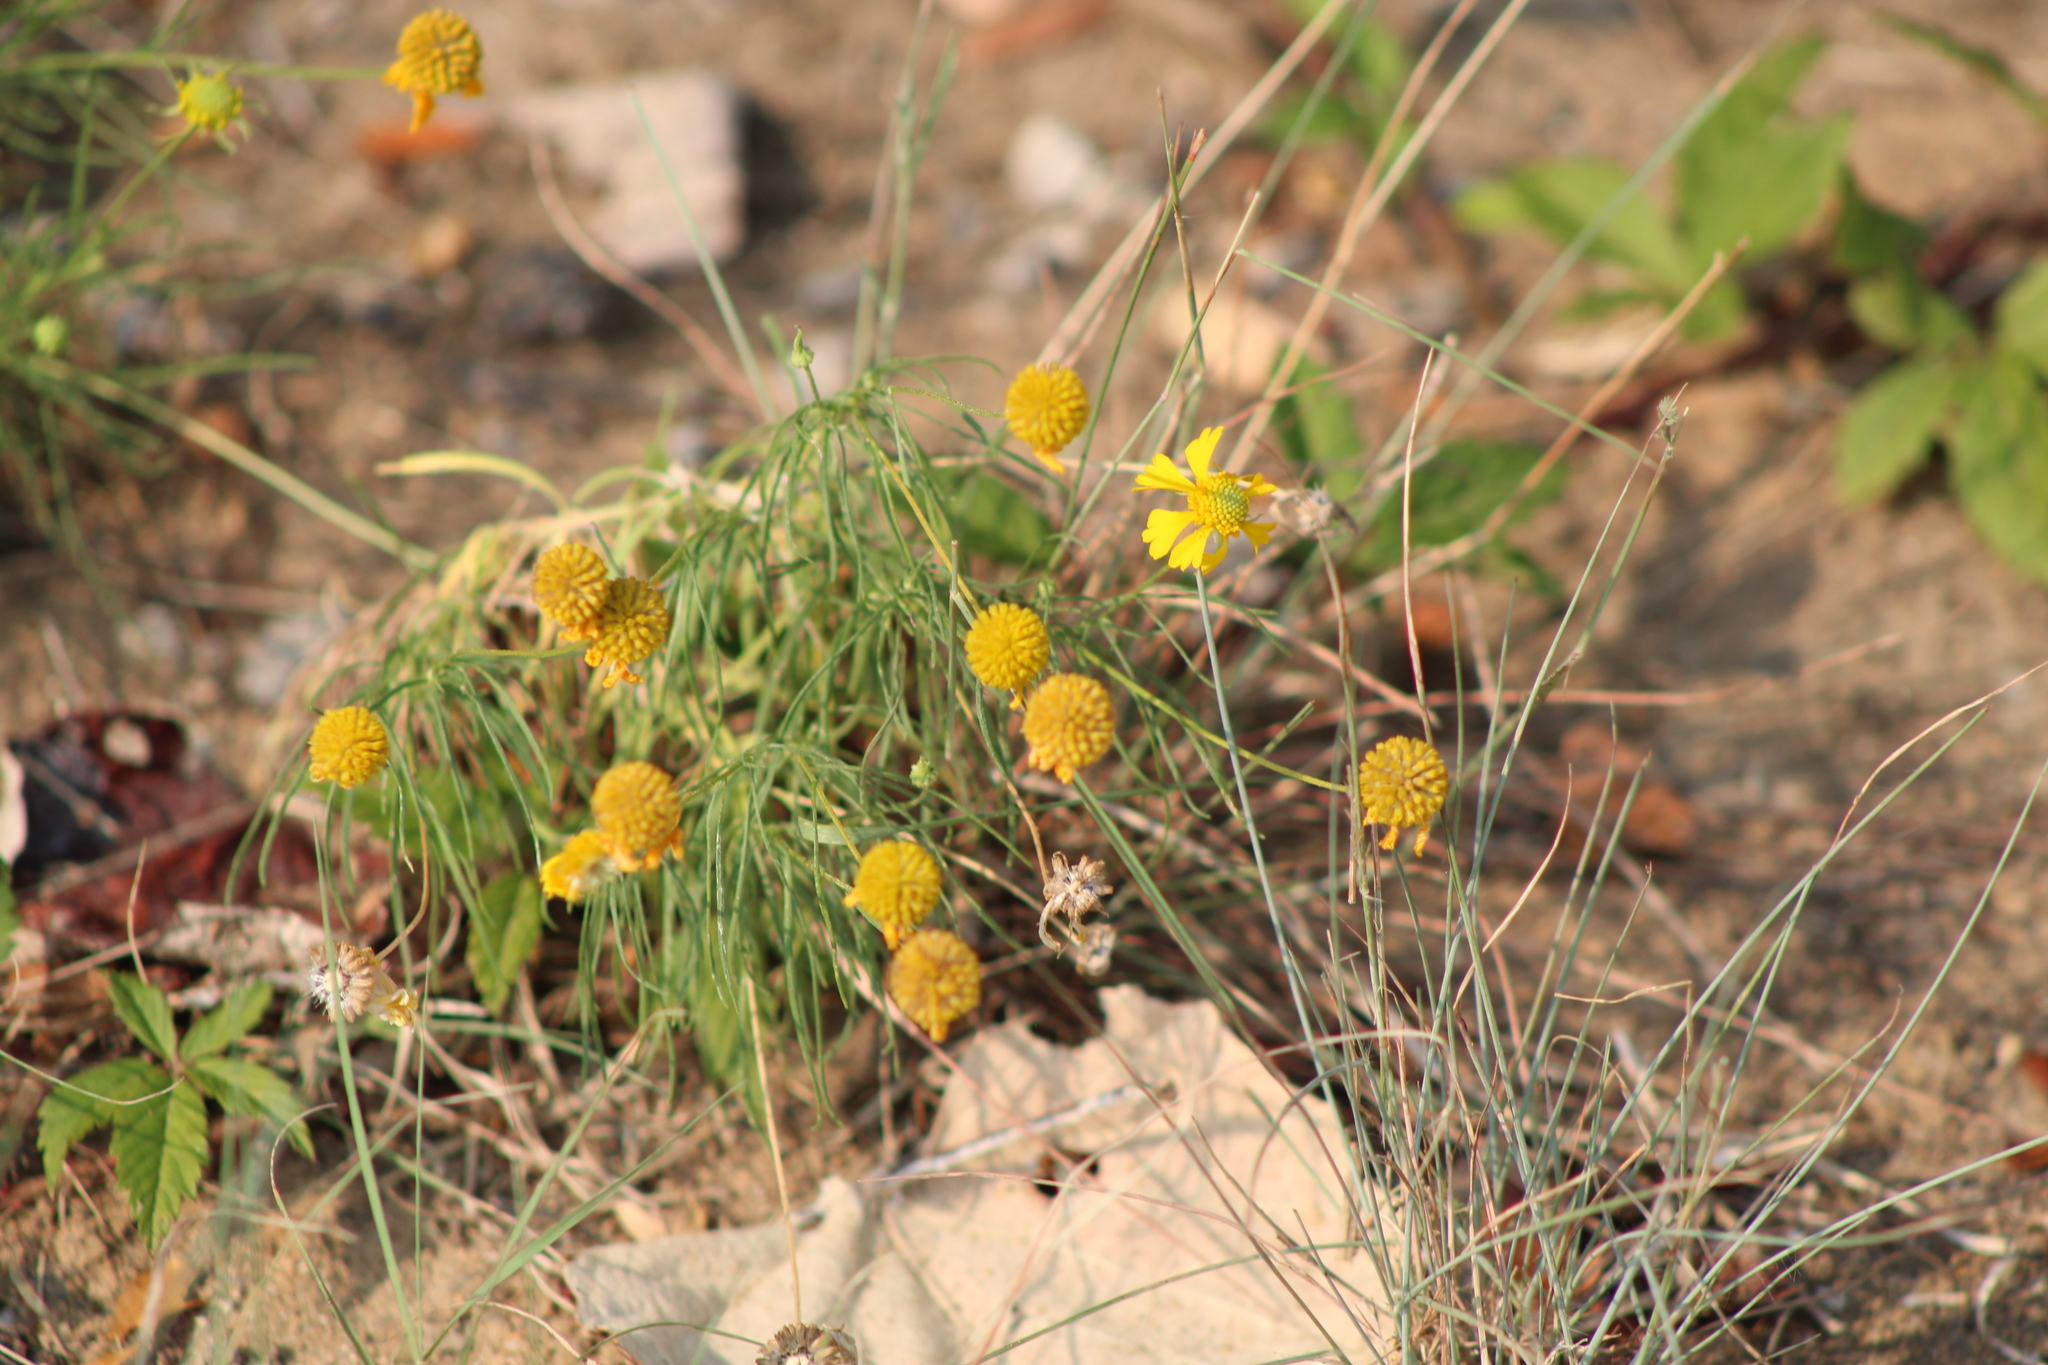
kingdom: Plantae
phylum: Tracheophyta
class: Magnoliopsida
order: Asterales
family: Asteraceae
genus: Helenium
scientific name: Helenium amarum
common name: Bitter sneezeweed
